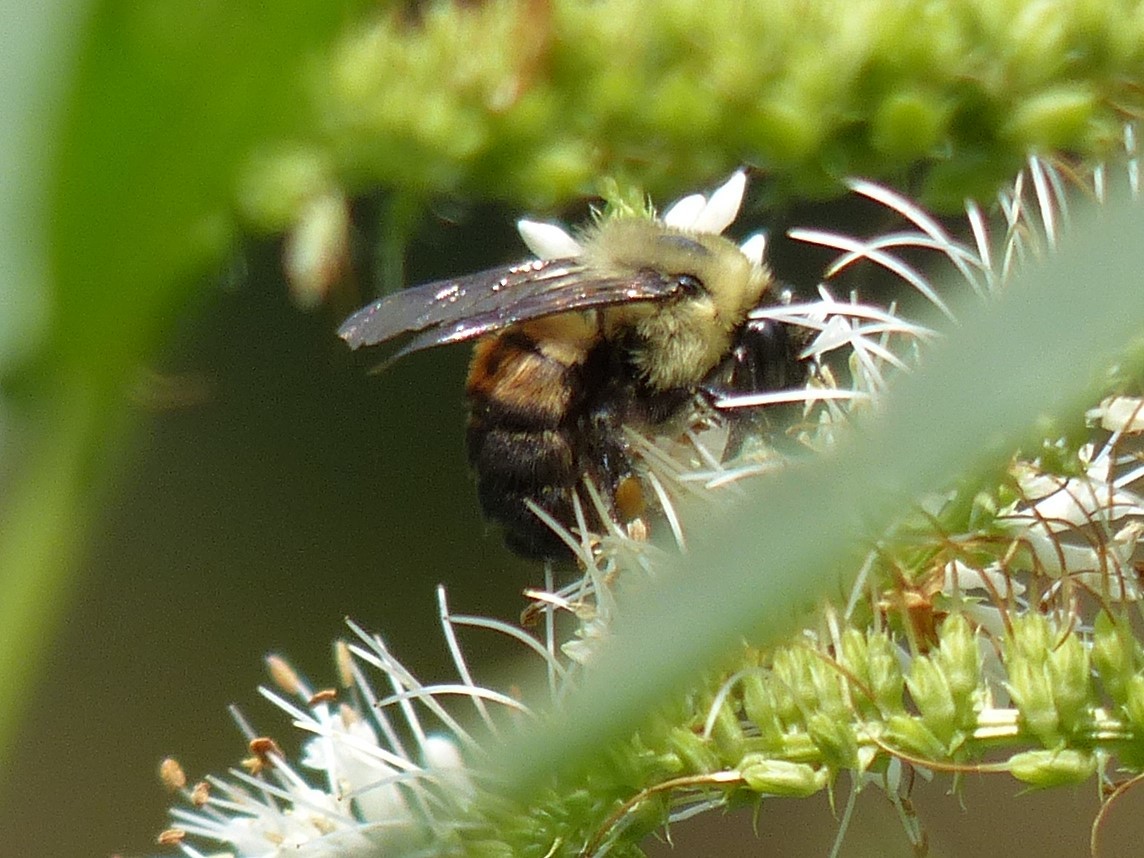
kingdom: Animalia
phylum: Arthropoda
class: Insecta
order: Hymenoptera
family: Apidae
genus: Bombus
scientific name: Bombus griseocollis
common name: Brown-belted bumble bee
